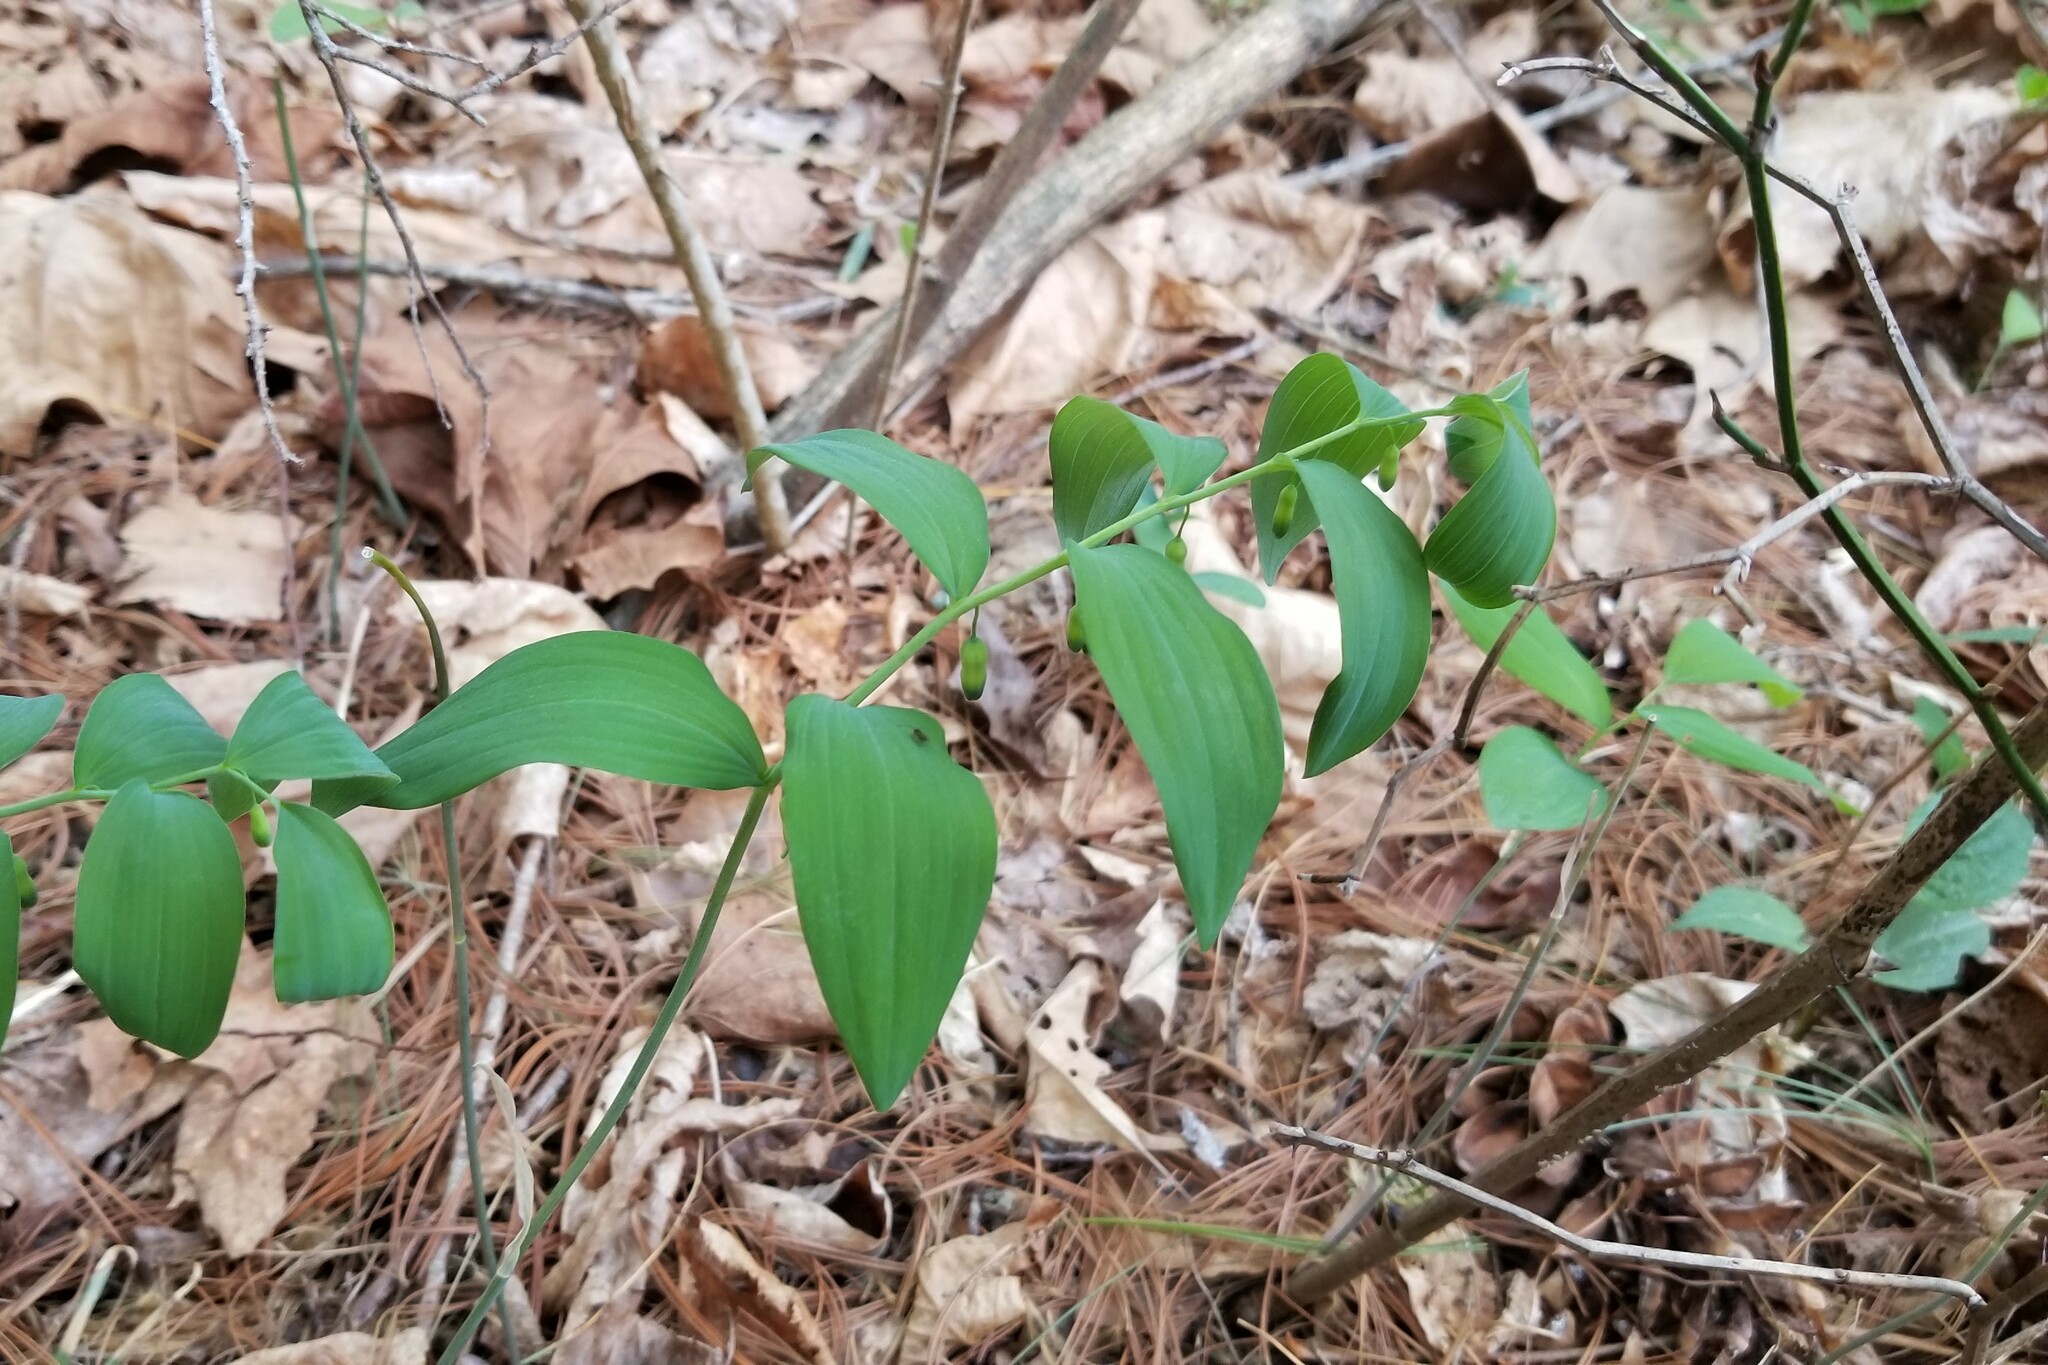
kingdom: Plantae
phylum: Tracheophyta
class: Liliopsida
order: Asparagales
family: Asparagaceae
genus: Polygonatum
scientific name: Polygonatum pubescens
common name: Downy solomon's seal
